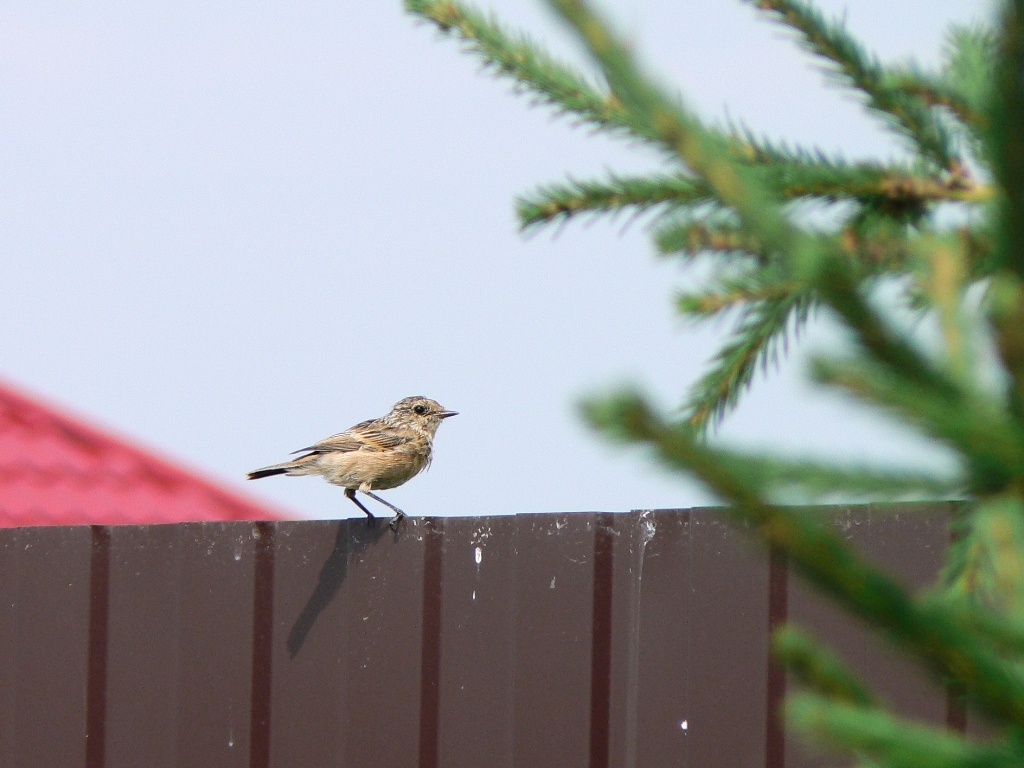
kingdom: Animalia
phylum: Chordata
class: Aves
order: Passeriformes
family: Muscicapidae
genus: Saxicola
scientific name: Saxicola maurus
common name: Siberian stonechat
